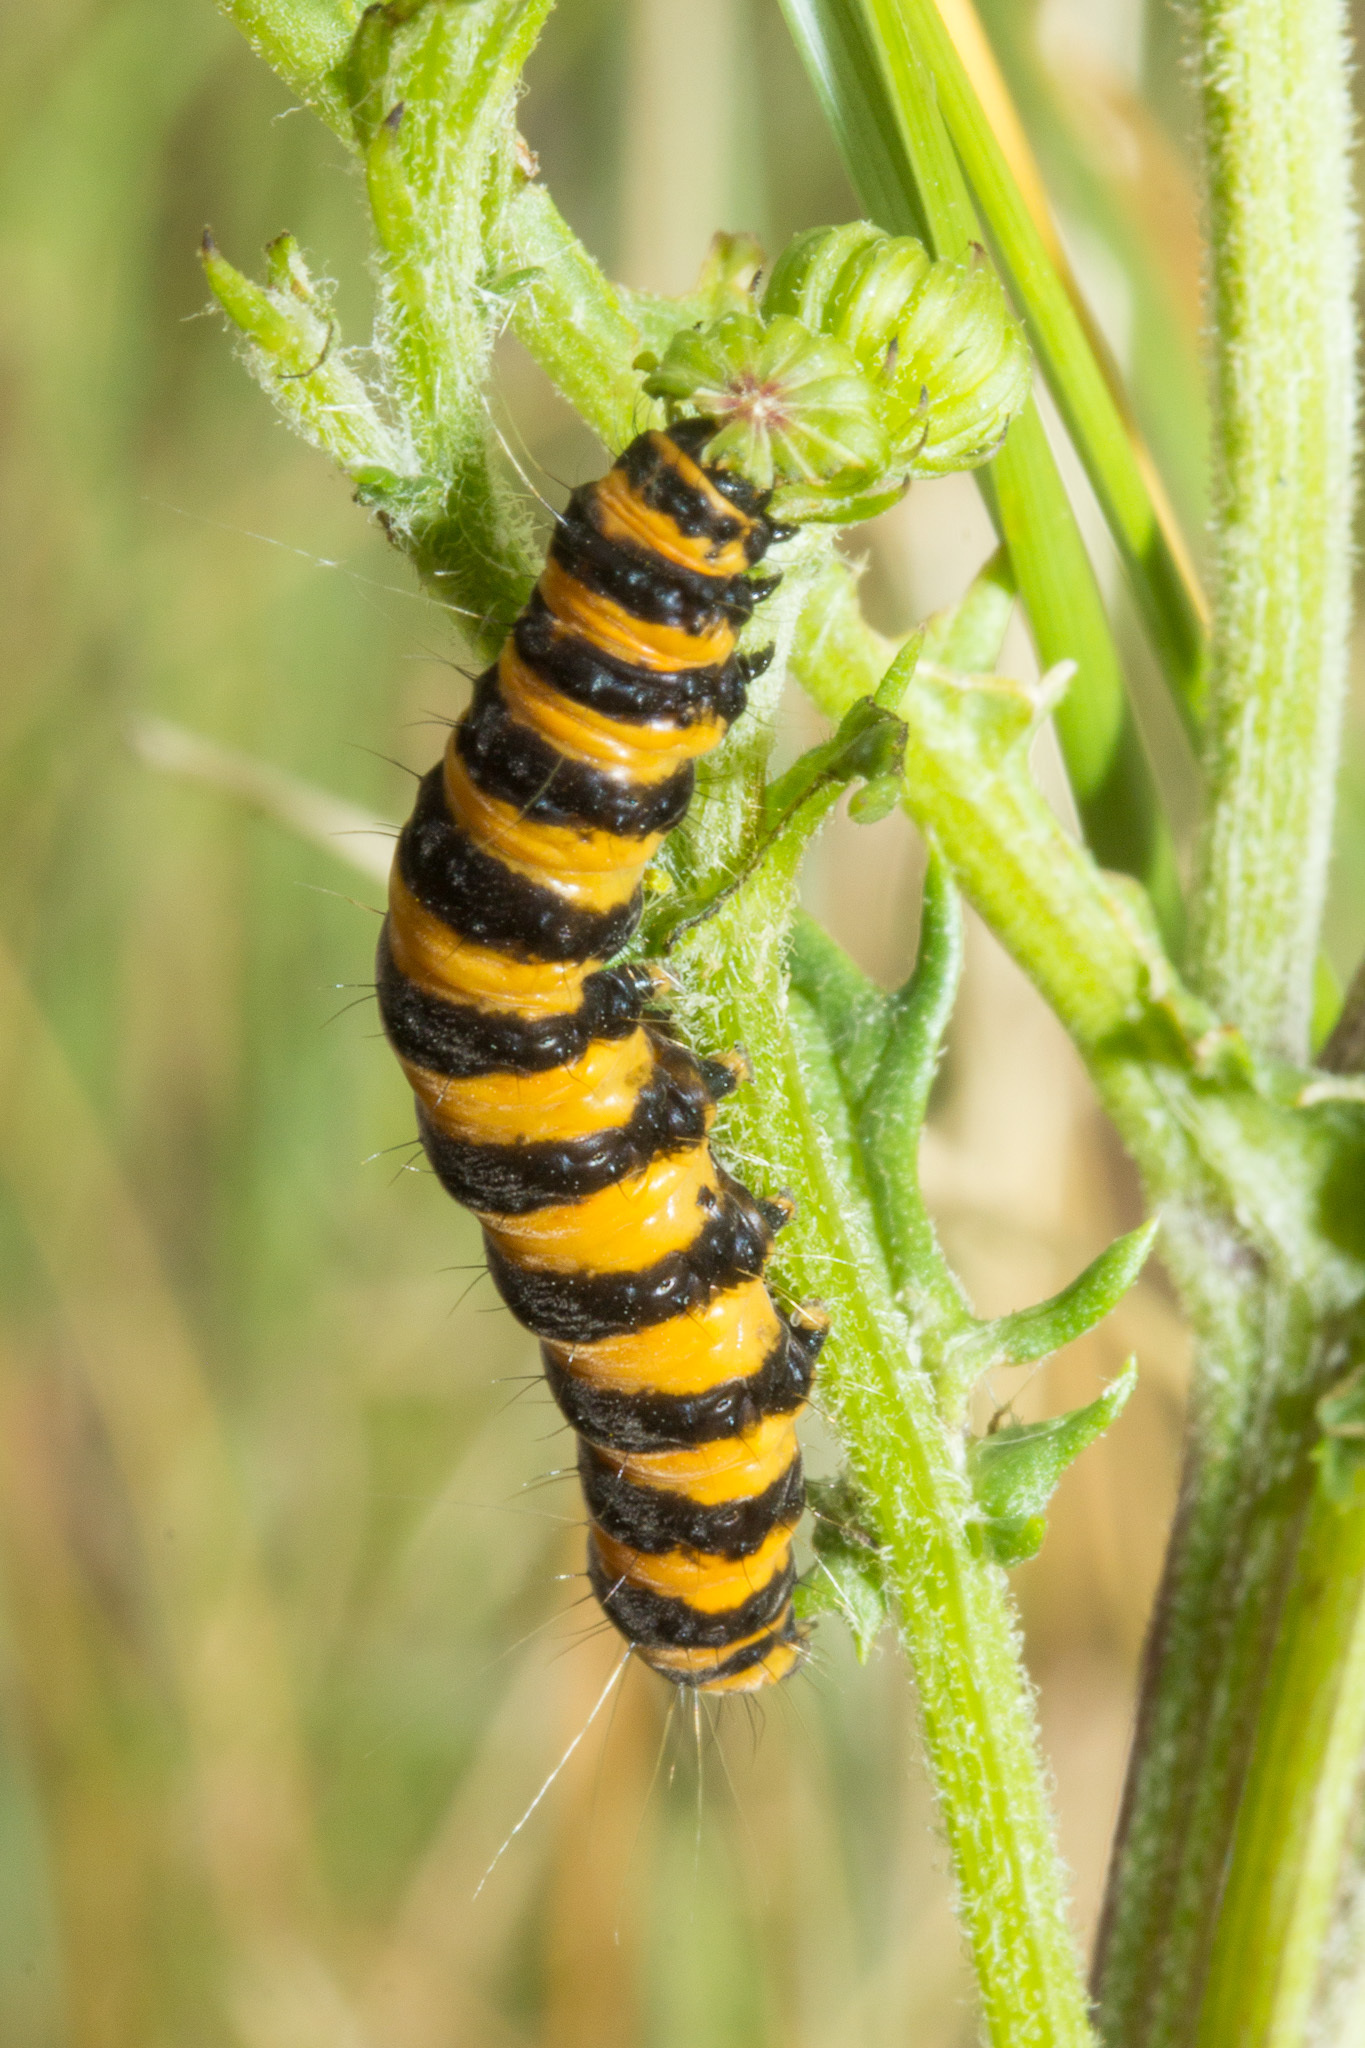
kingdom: Animalia
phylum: Arthropoda
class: Insecta
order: Lepidoptera
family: Erebidae
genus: Tyria
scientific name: Tyria jacobaeae
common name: Cinnabar
